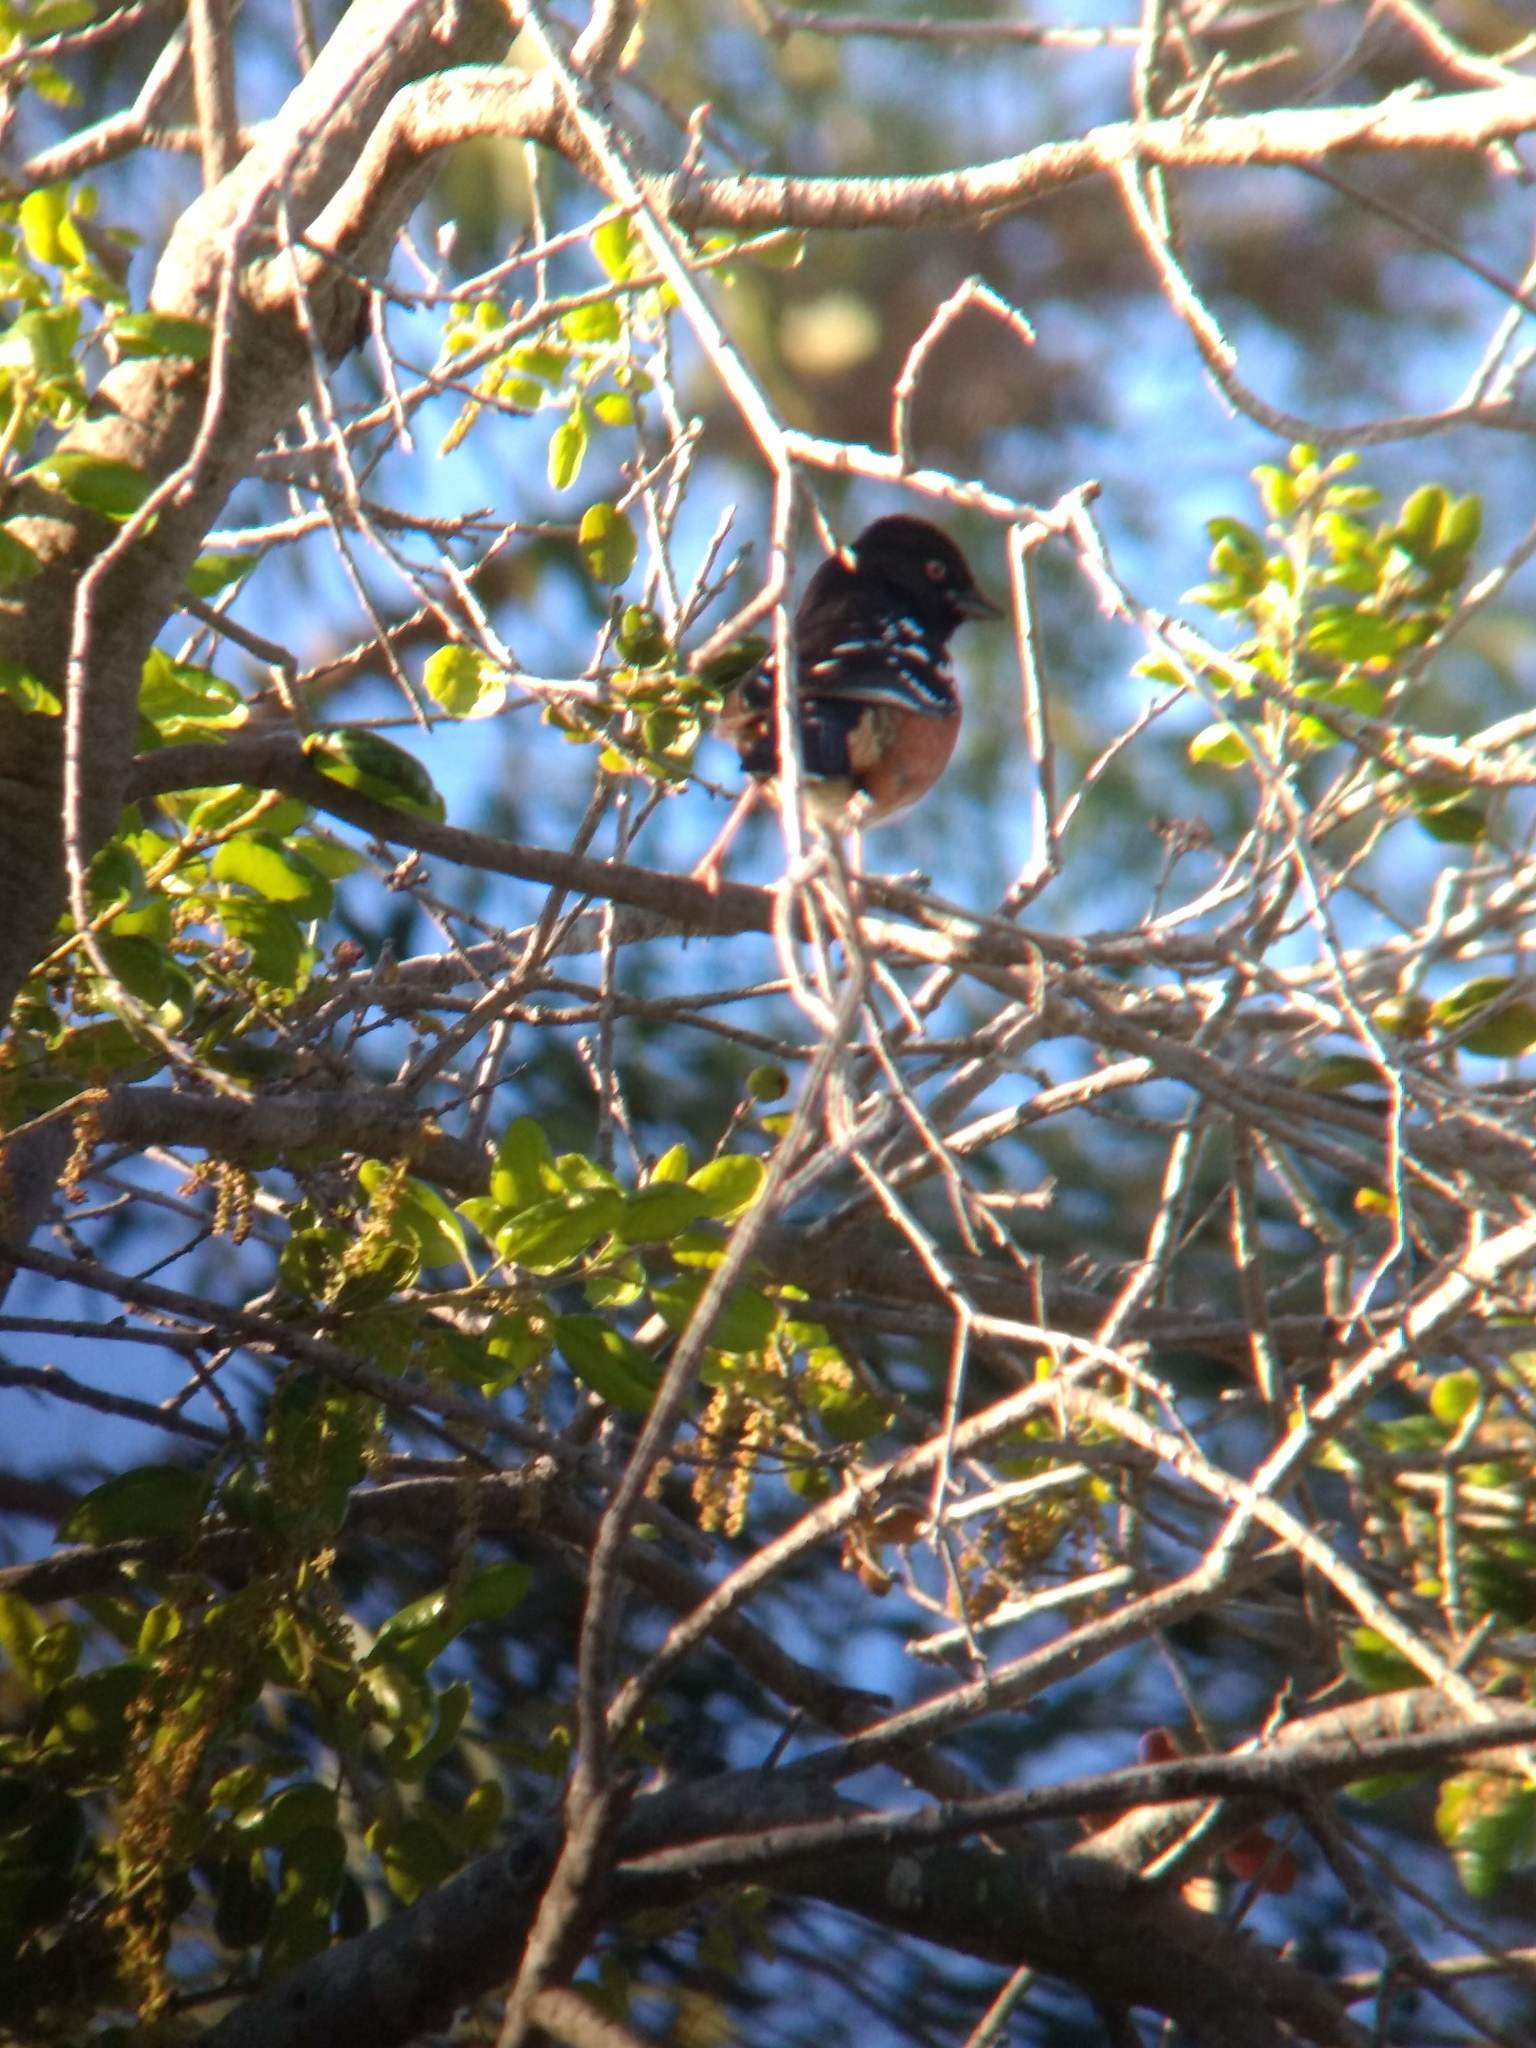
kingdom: Animalia
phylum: Chordata
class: Aves
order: Passeriformes
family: Passerellidae
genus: Pipilo
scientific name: Pipilo maculatus
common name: Spotted towhee
